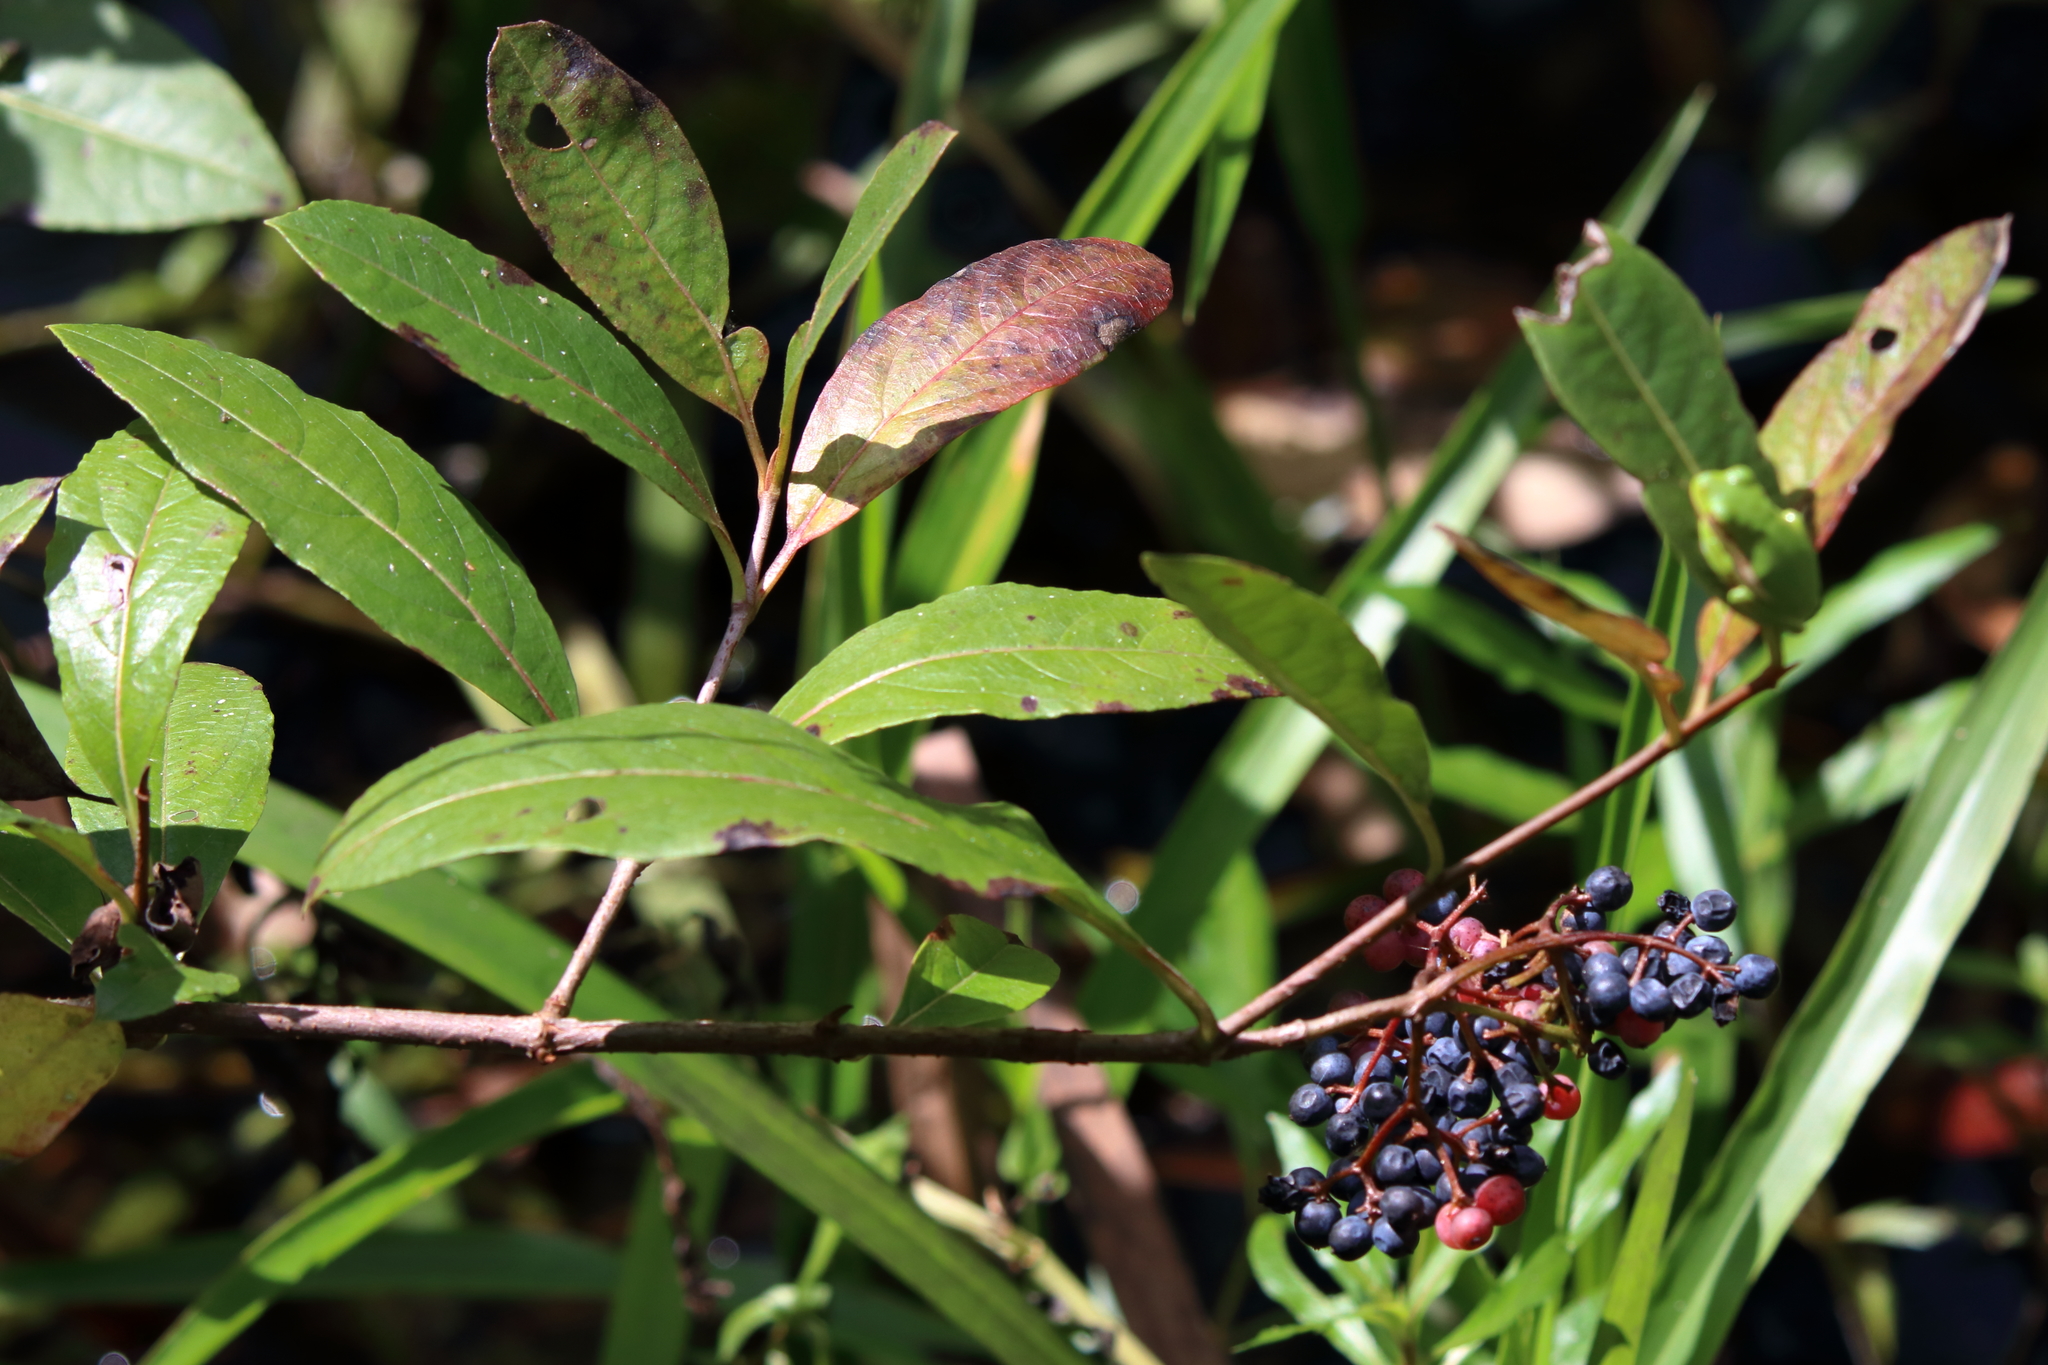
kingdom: Plantae
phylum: Tracheophyta
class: Magnoliopsida
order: Dipsacales
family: Viburnaceae
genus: Viburnum
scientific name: Viburnum nudum
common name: Possum haw
